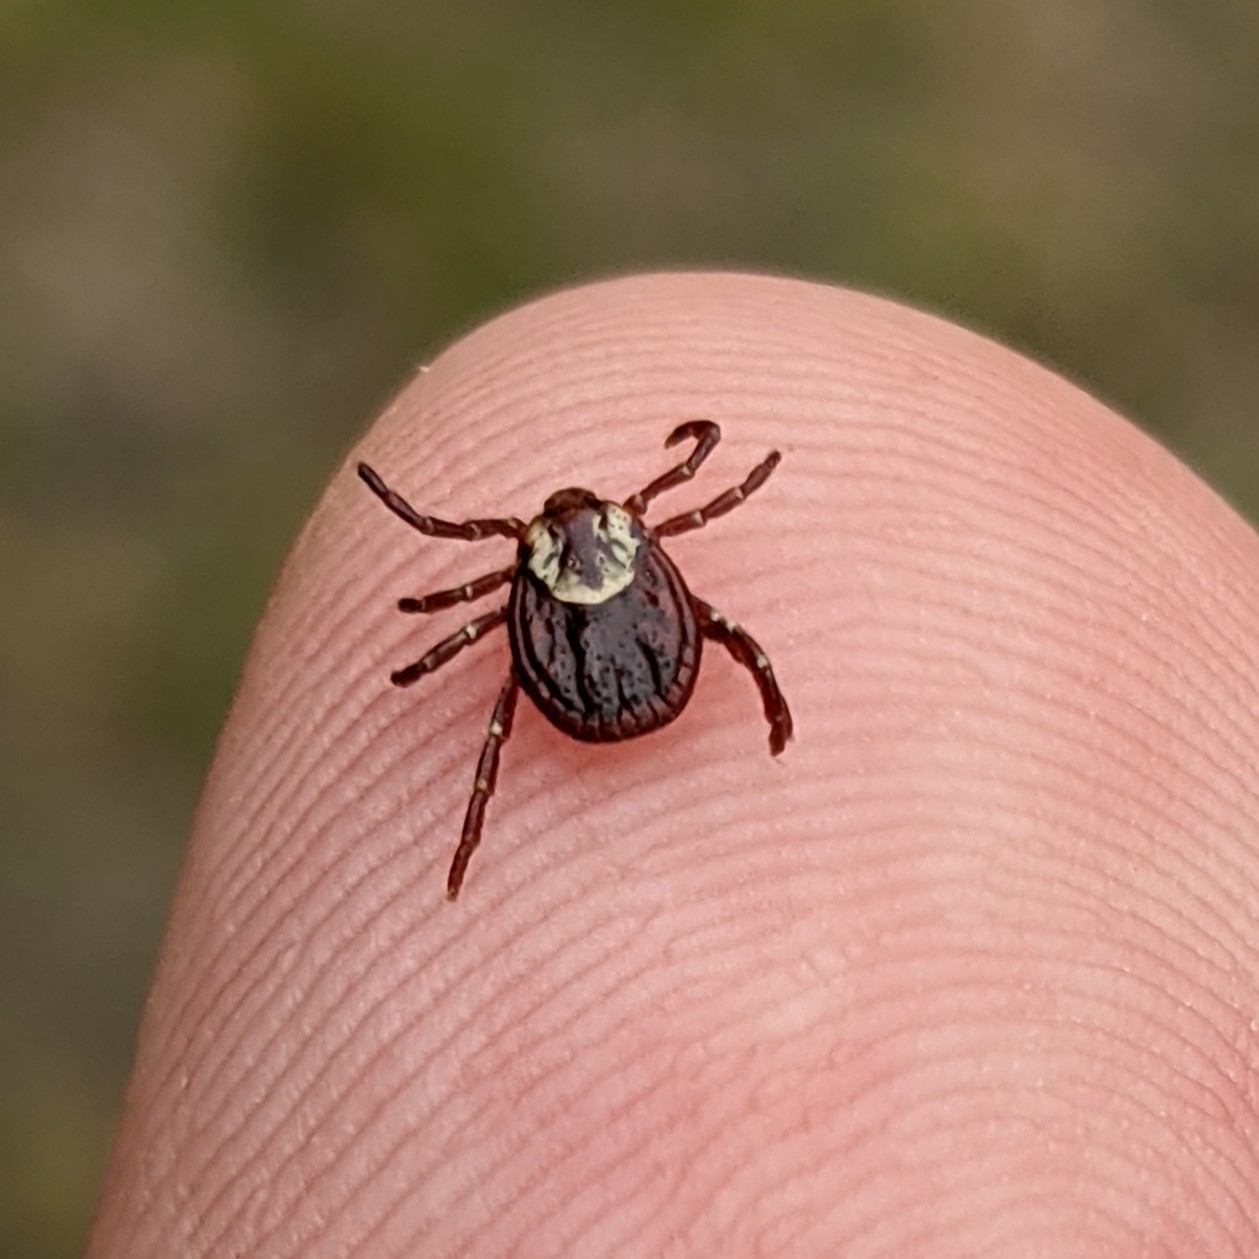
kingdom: Animalia
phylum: Arthropoda
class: Arachnida
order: Ixodida
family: Ixodidae
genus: Dermacentor
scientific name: Dermacentor variabilis
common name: American dog tick
